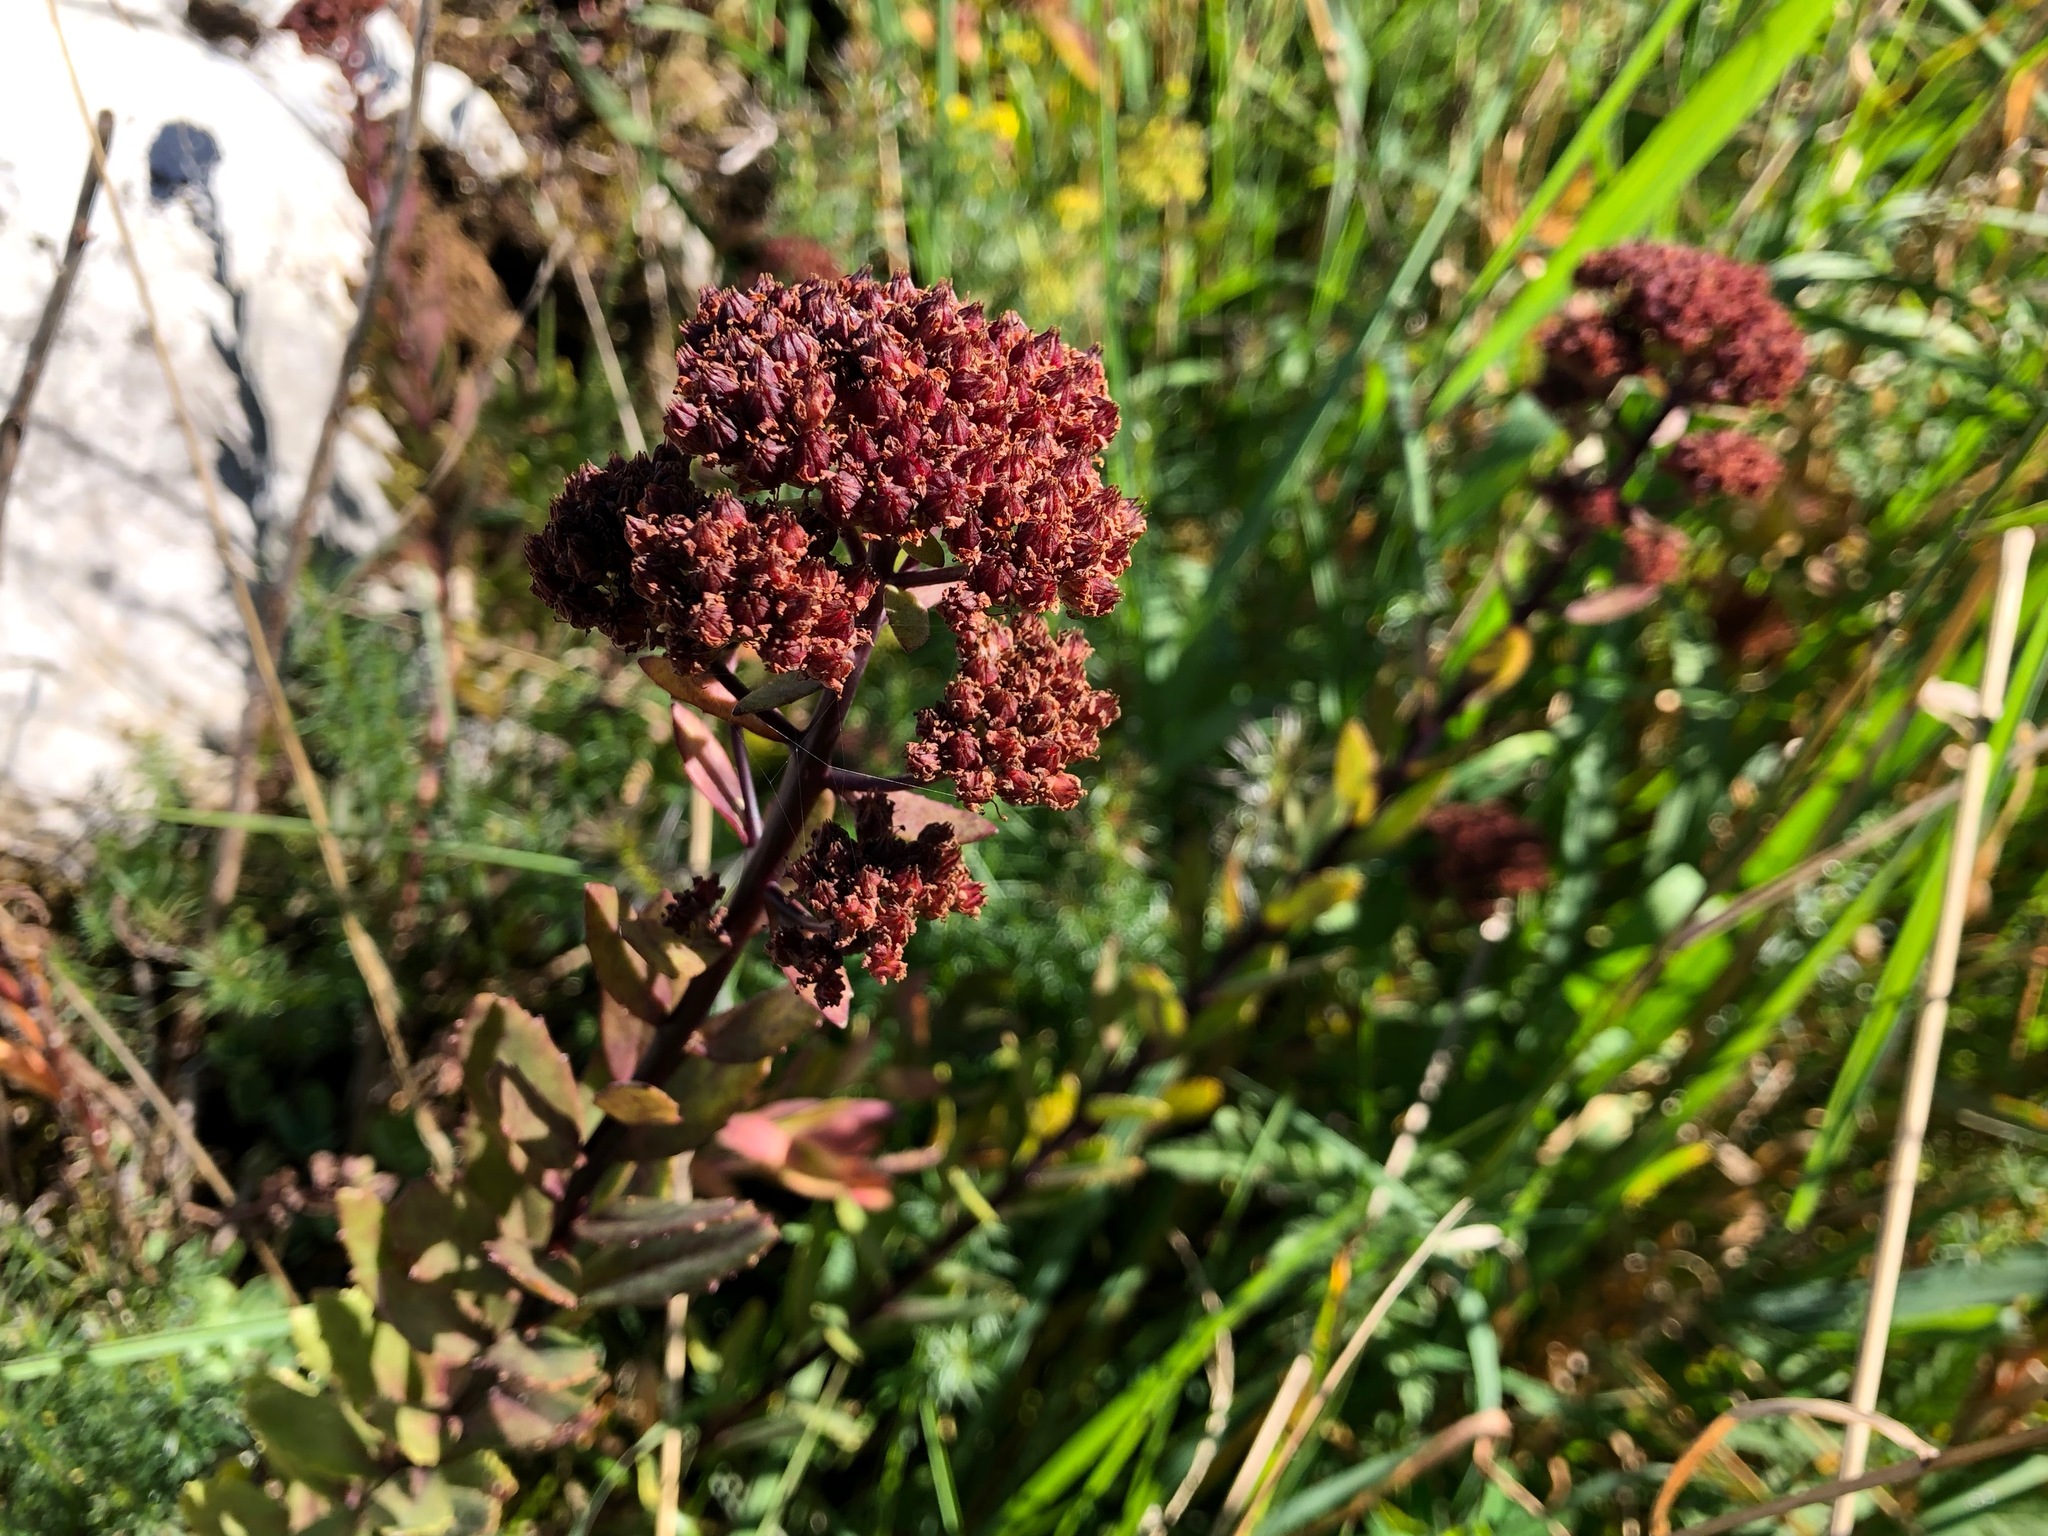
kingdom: Plantae
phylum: Tracheophyta
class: Magnoliopsida
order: Saxifragales
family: Crassulaceae
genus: Hylotelephium
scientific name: Hylotelephium telephium
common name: Live-forever
